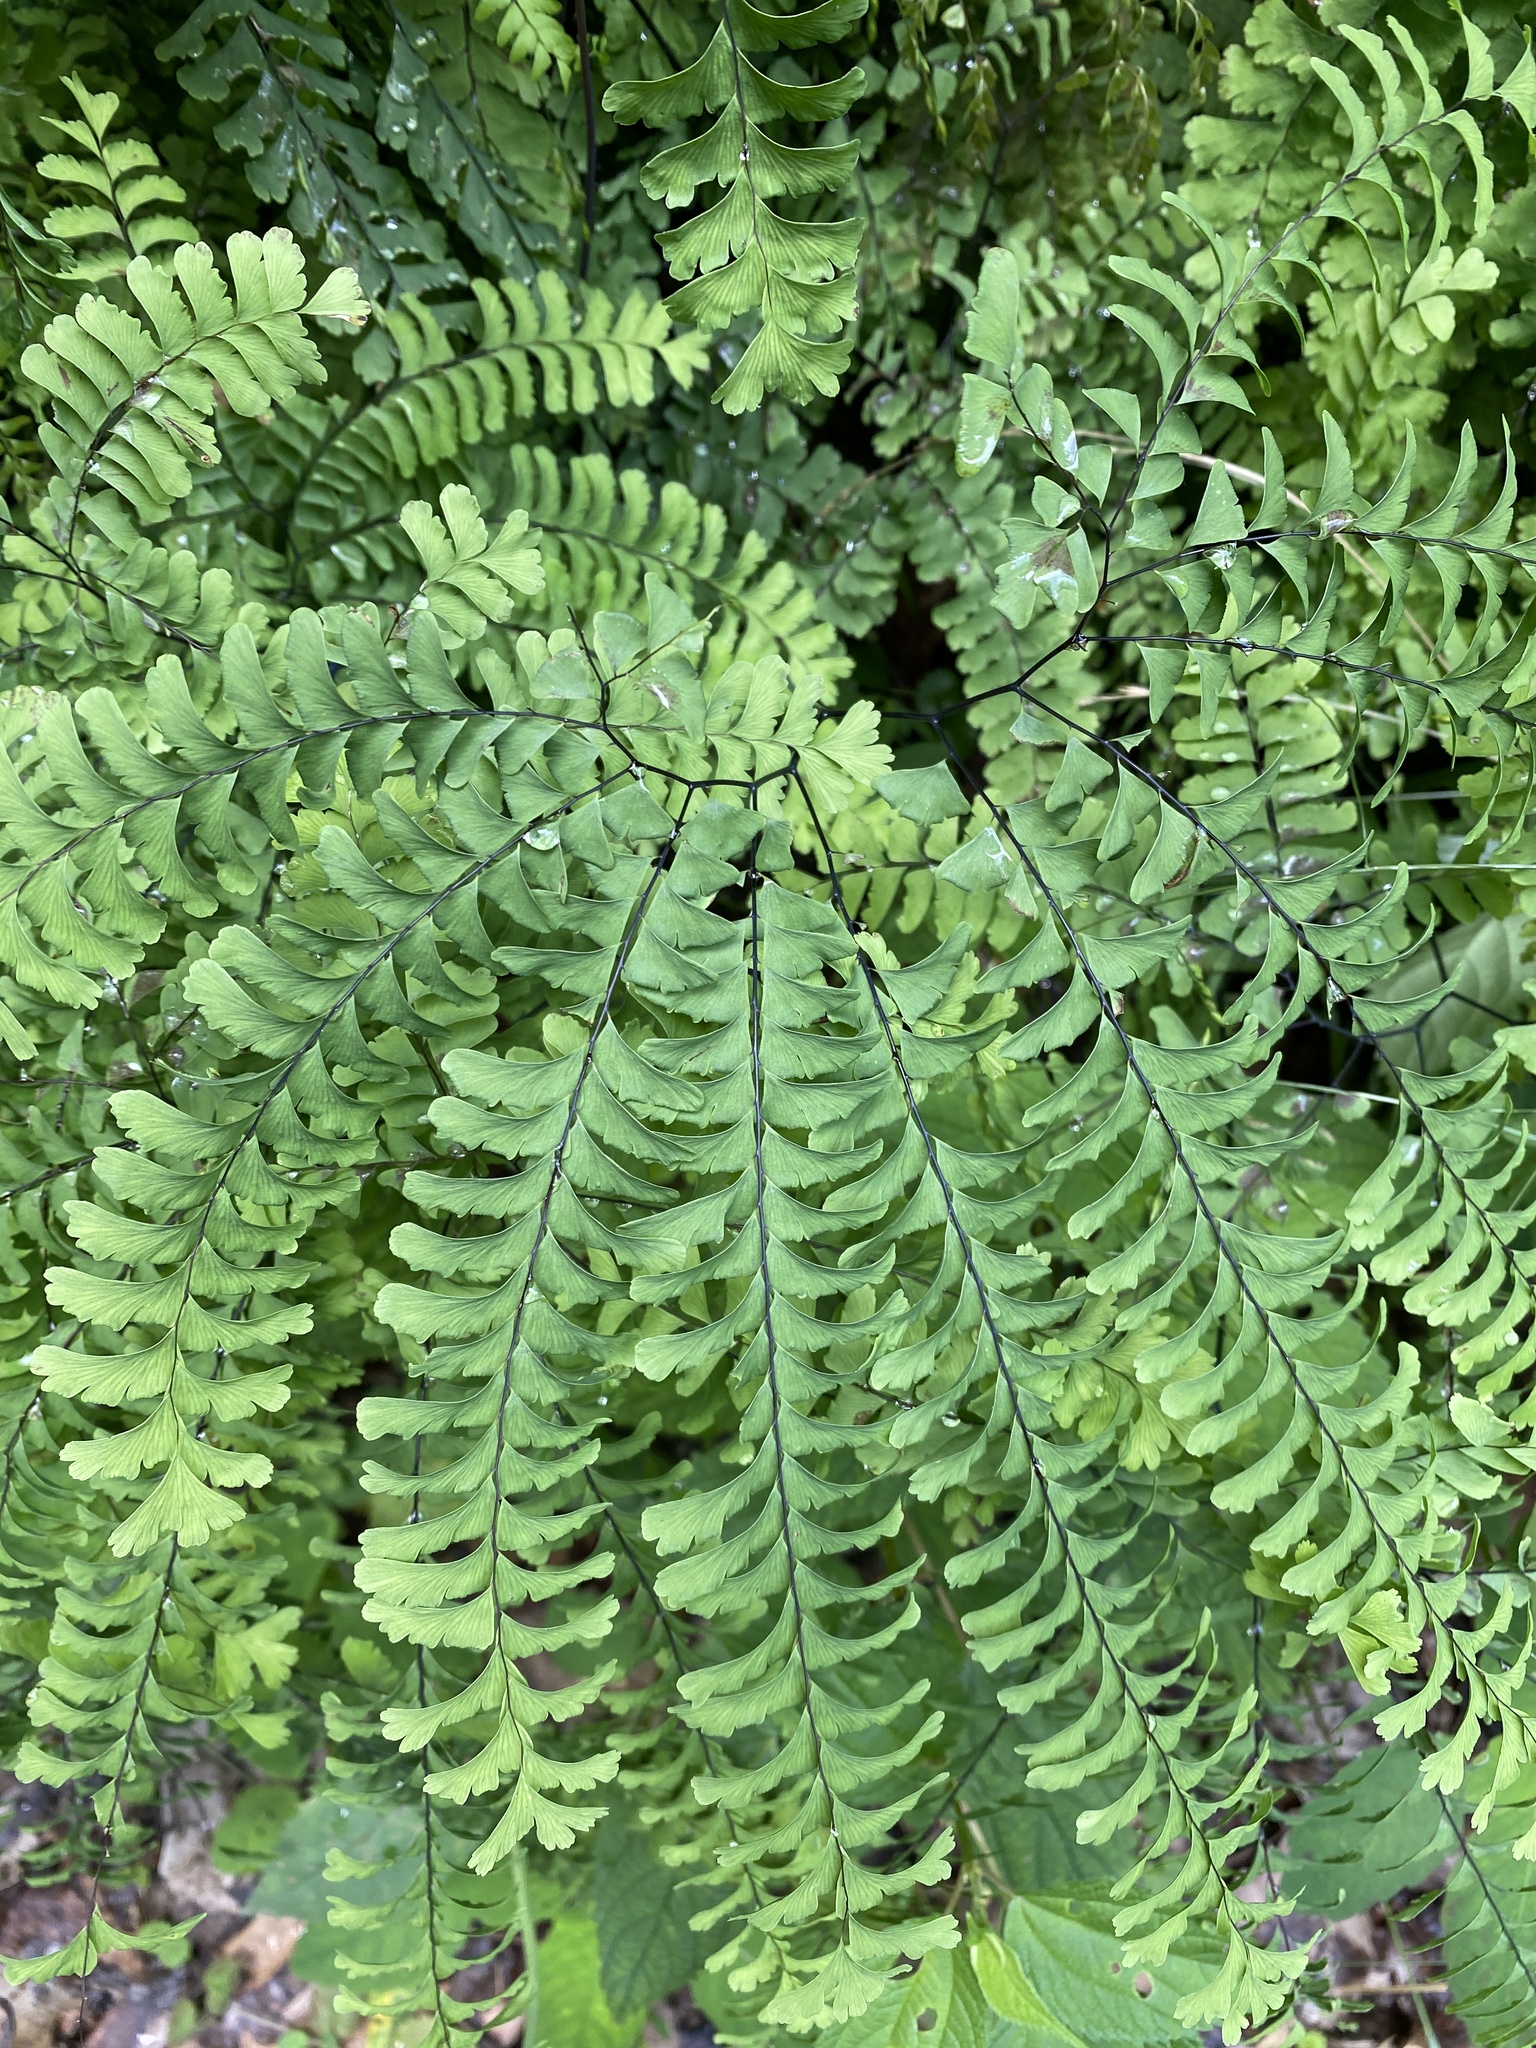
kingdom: Plantae
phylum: Tracheophyta
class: Polypodiopsida
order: Polypodiales
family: Pteridaceae
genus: Adiantum
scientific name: Adiantum pedatum
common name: Five-finger fern
